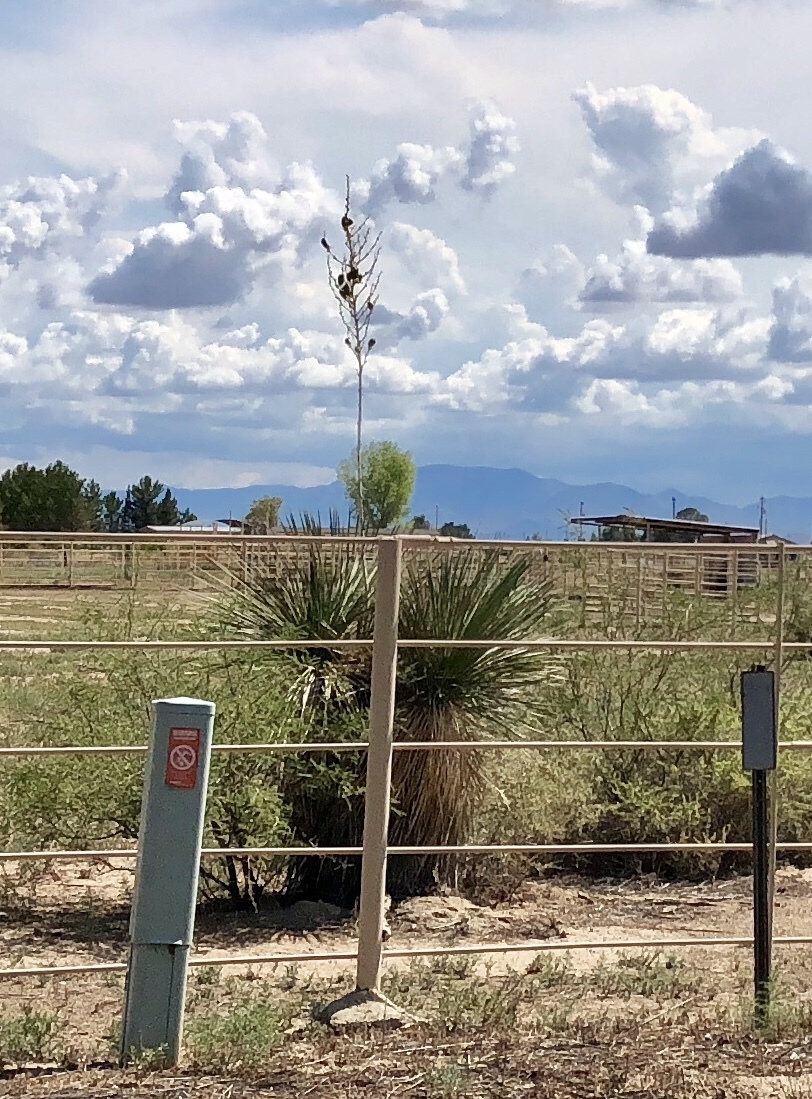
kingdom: Plantae
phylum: Tracheophyta
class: Liliopsida
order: Asparagales
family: Asparagaceae
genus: Yucca
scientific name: Yucca elata
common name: Palmella
